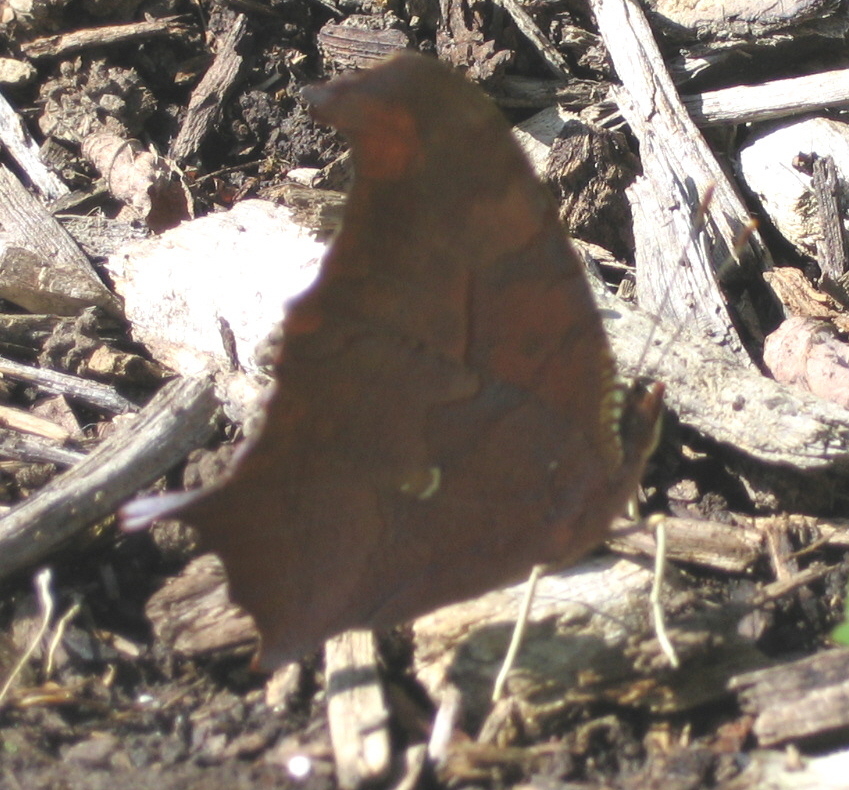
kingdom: Animalia
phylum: Arthropoda
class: Insecta
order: Lepidoptera
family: Nymphalidae
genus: Polygonia
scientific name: Polygonia interrogationis
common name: Question mark
